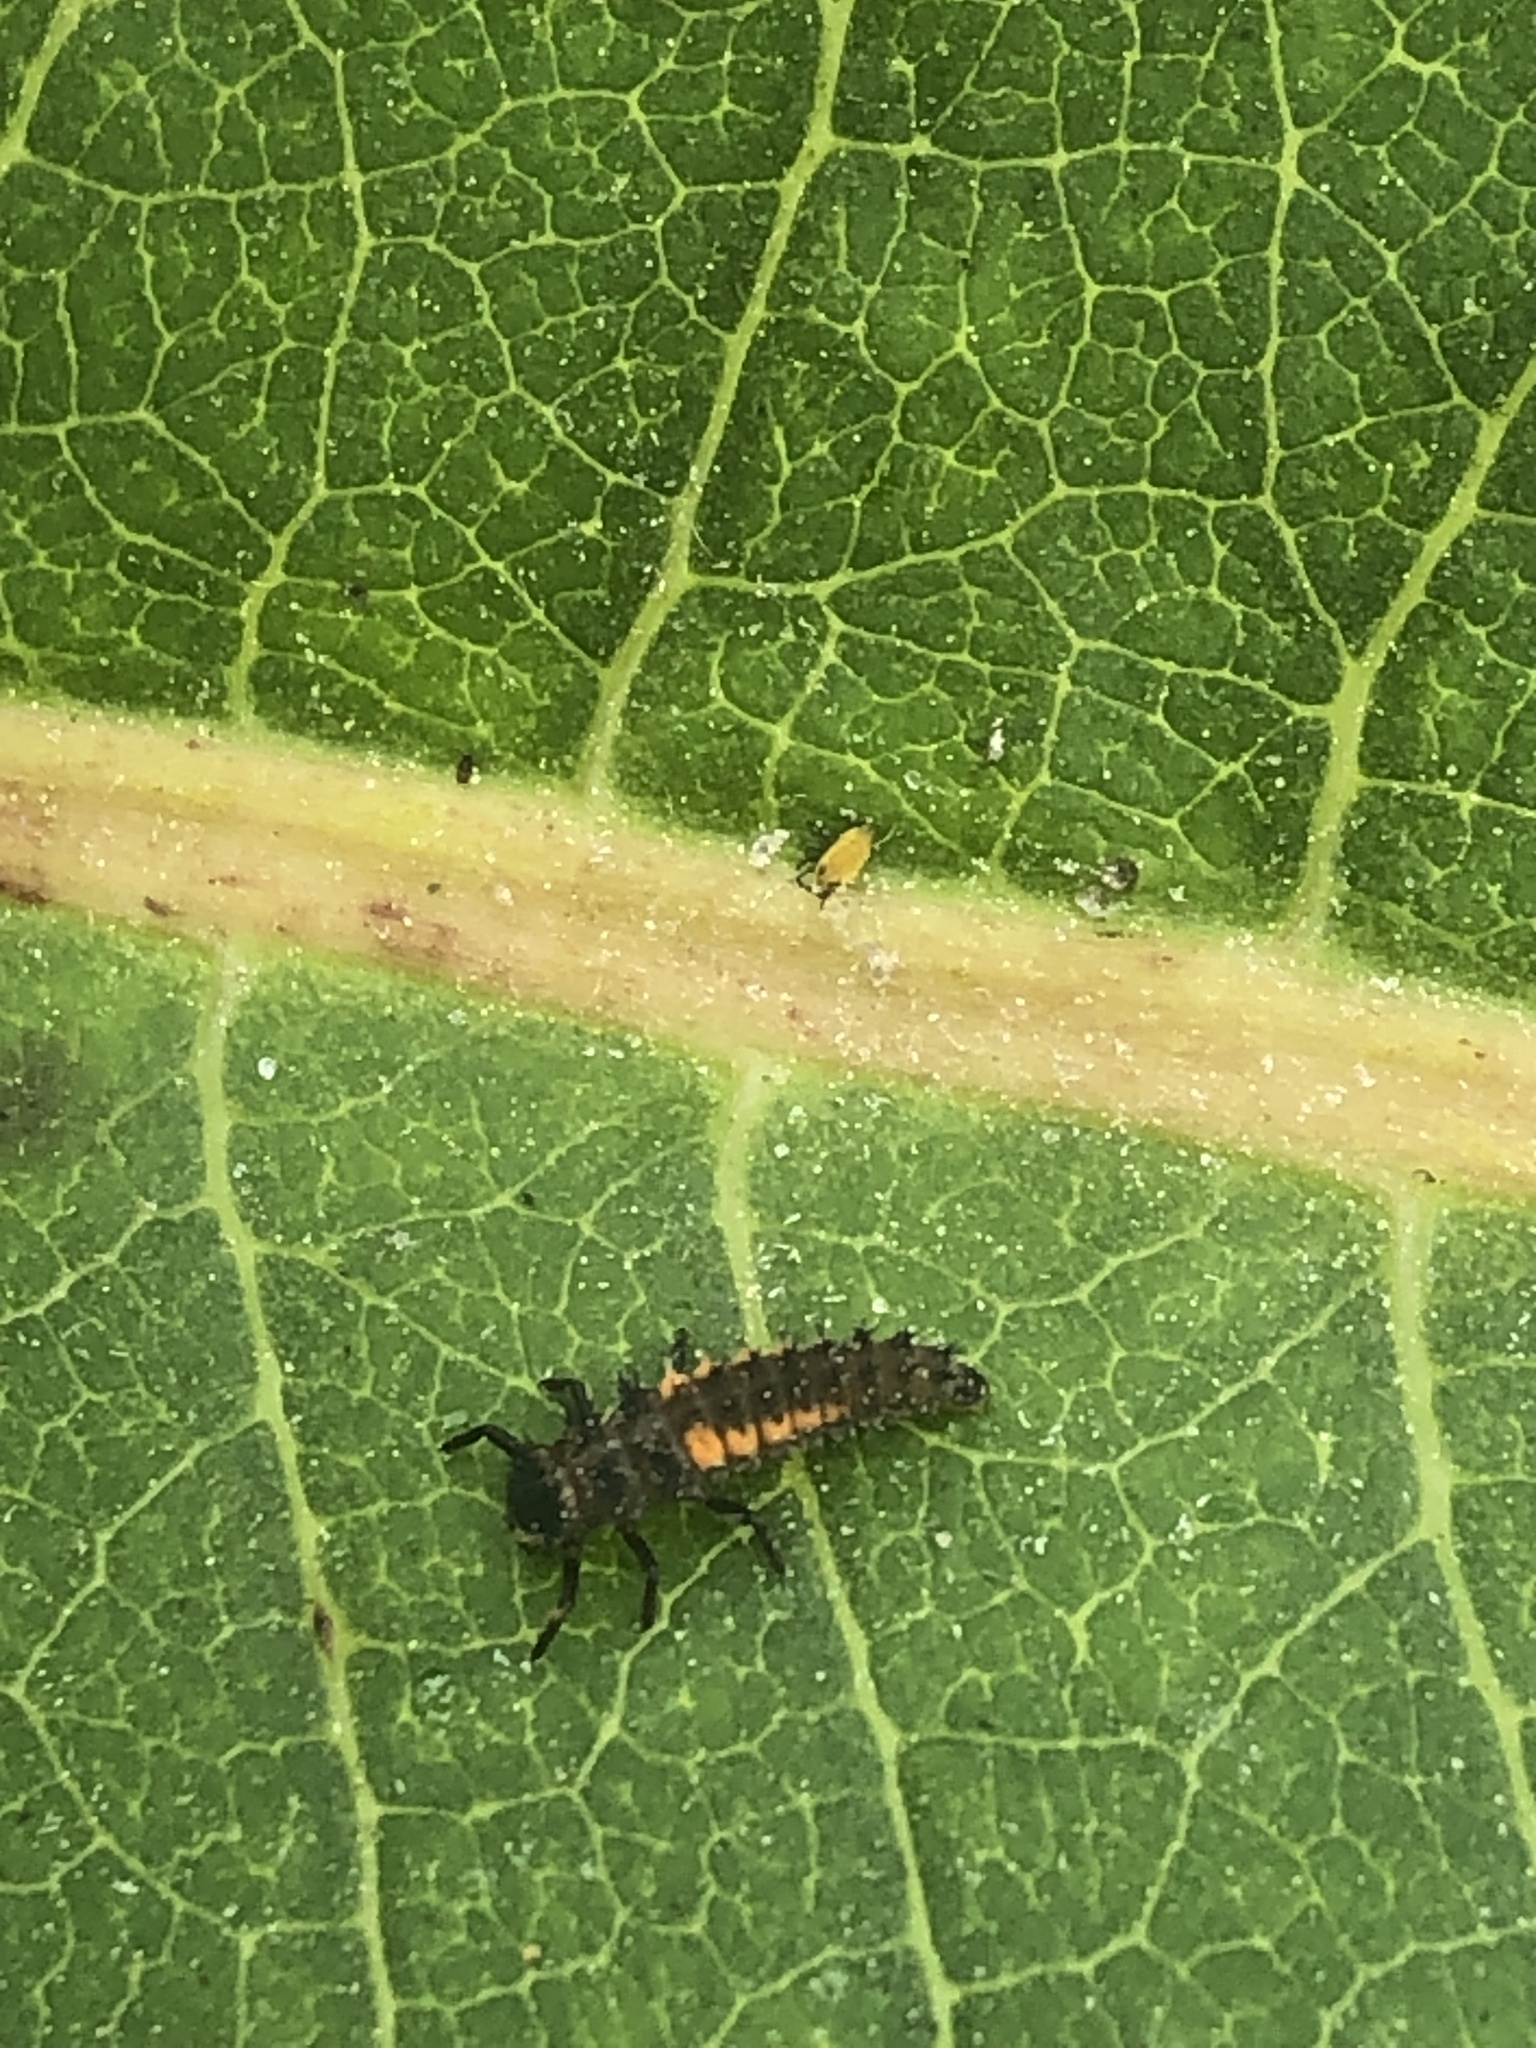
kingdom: Animalia
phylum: Arthropoda
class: Insecta
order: Coleoptera
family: Coccinellidae
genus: Harmonia
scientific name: Harmonia axyridis
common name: Harlequin ladybird
